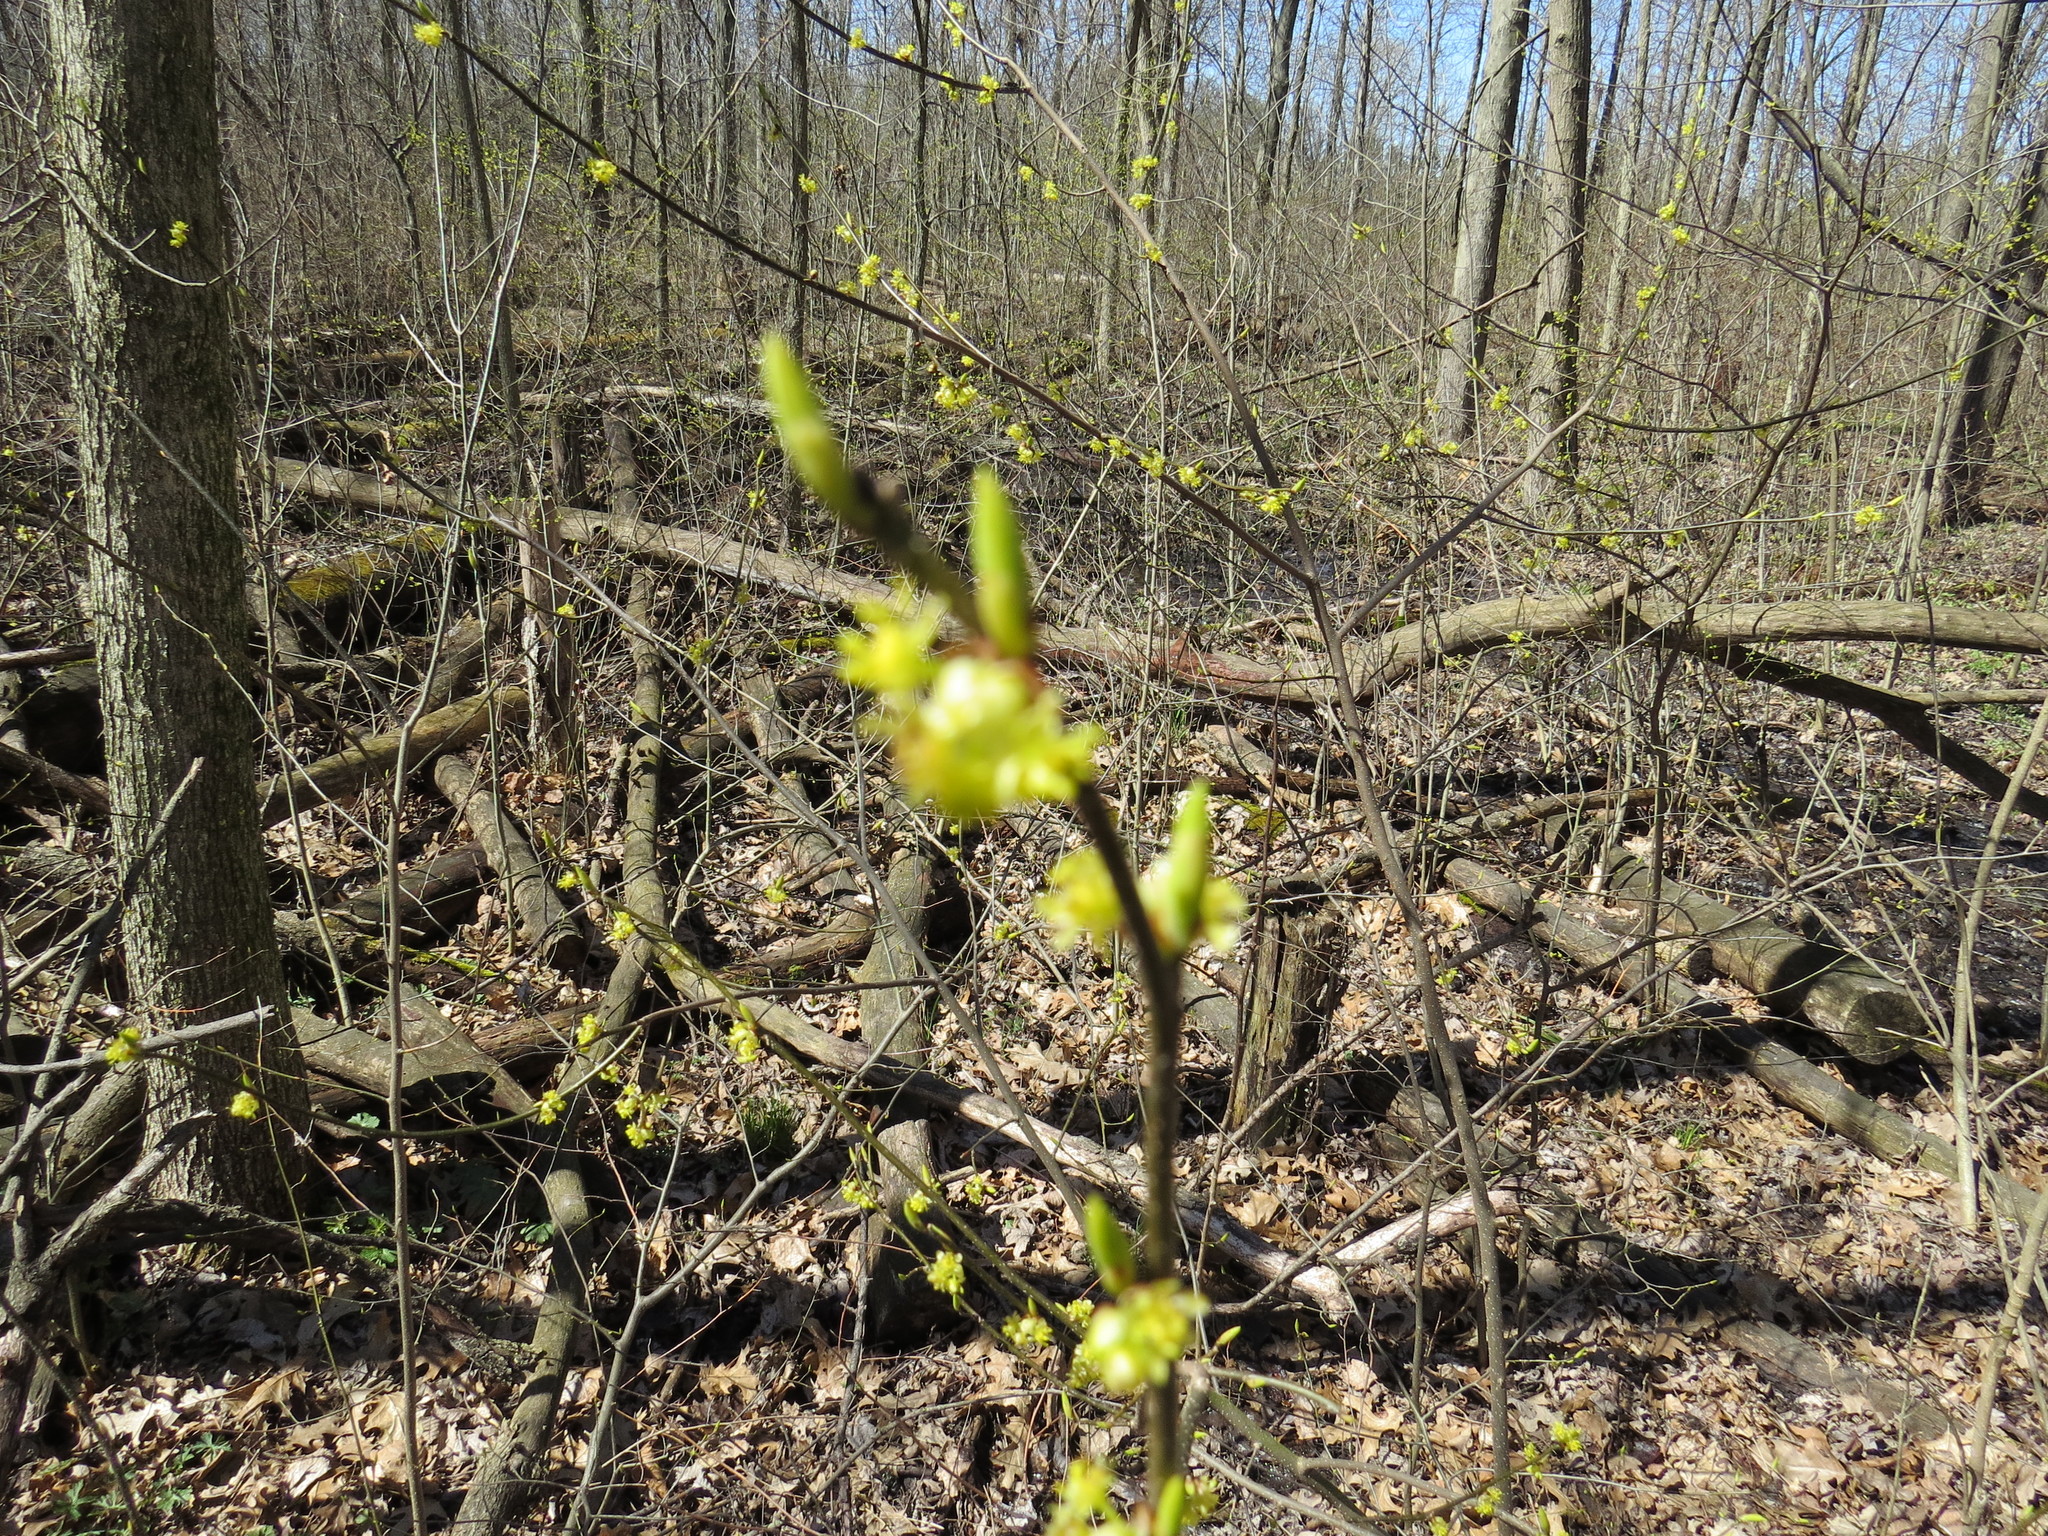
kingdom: Plantae
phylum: Tracheophyta
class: Magnoliopsida
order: Laurales
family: Lauraceae
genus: Lindera
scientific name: Lindera benzoin
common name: Spicebush
